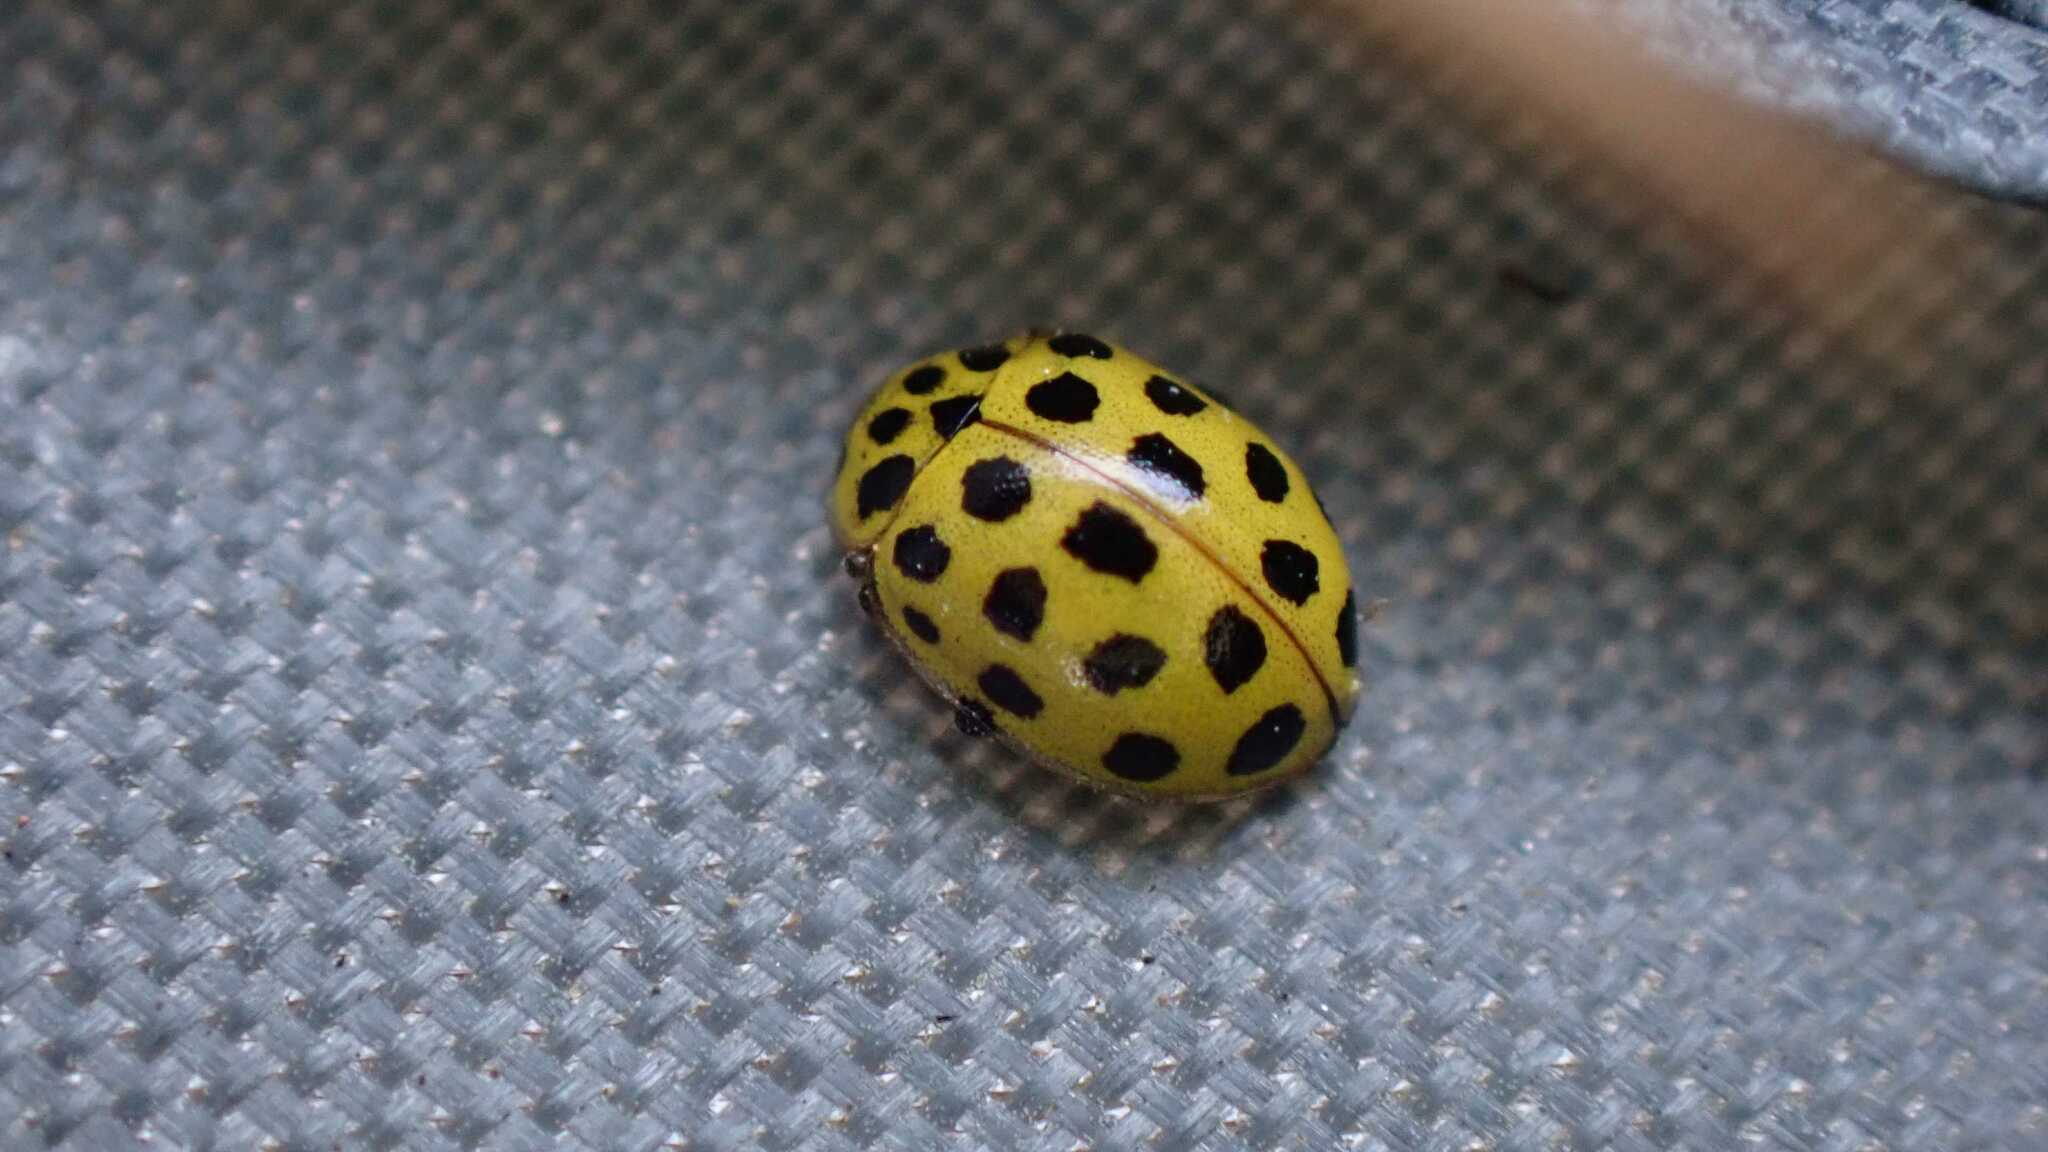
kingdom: Animalia
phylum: Arthropoda
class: Insecta
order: Coleoptera
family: Coccinellidae
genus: Psyllobora
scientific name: Psyllobora vigintiduopunctata
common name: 22-spot ladybird
